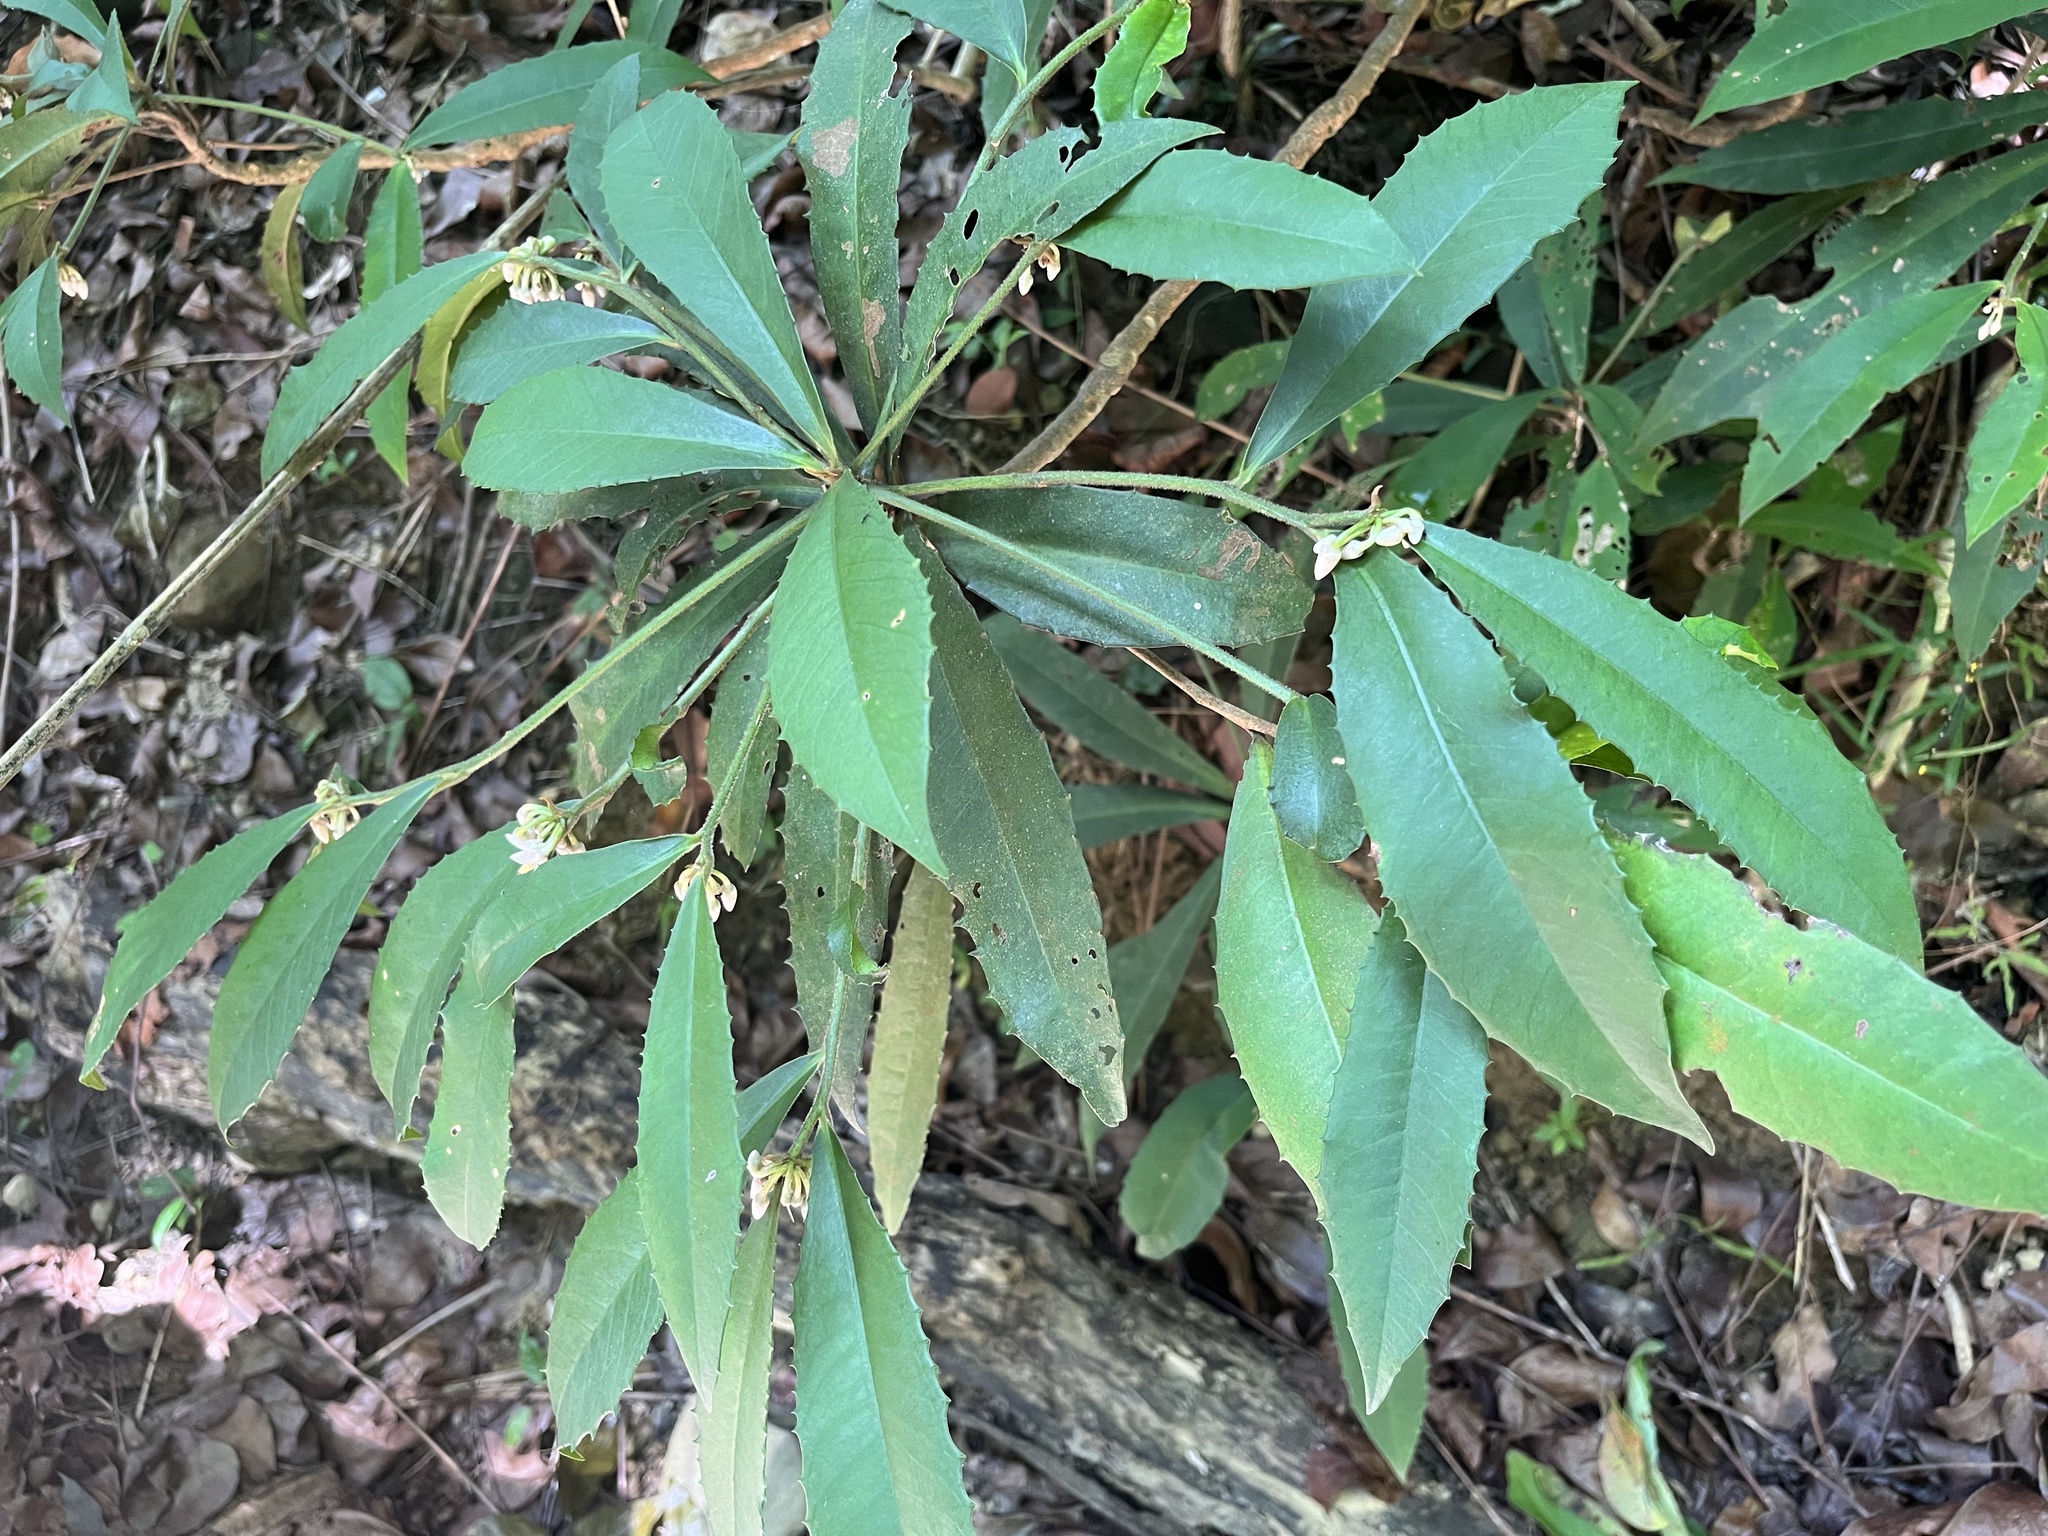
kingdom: Plantae
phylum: Tracheophyta
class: Magnoliopsida
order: Ericales
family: Primulaceae
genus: Ardisia
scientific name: Ardisia cornudentata
